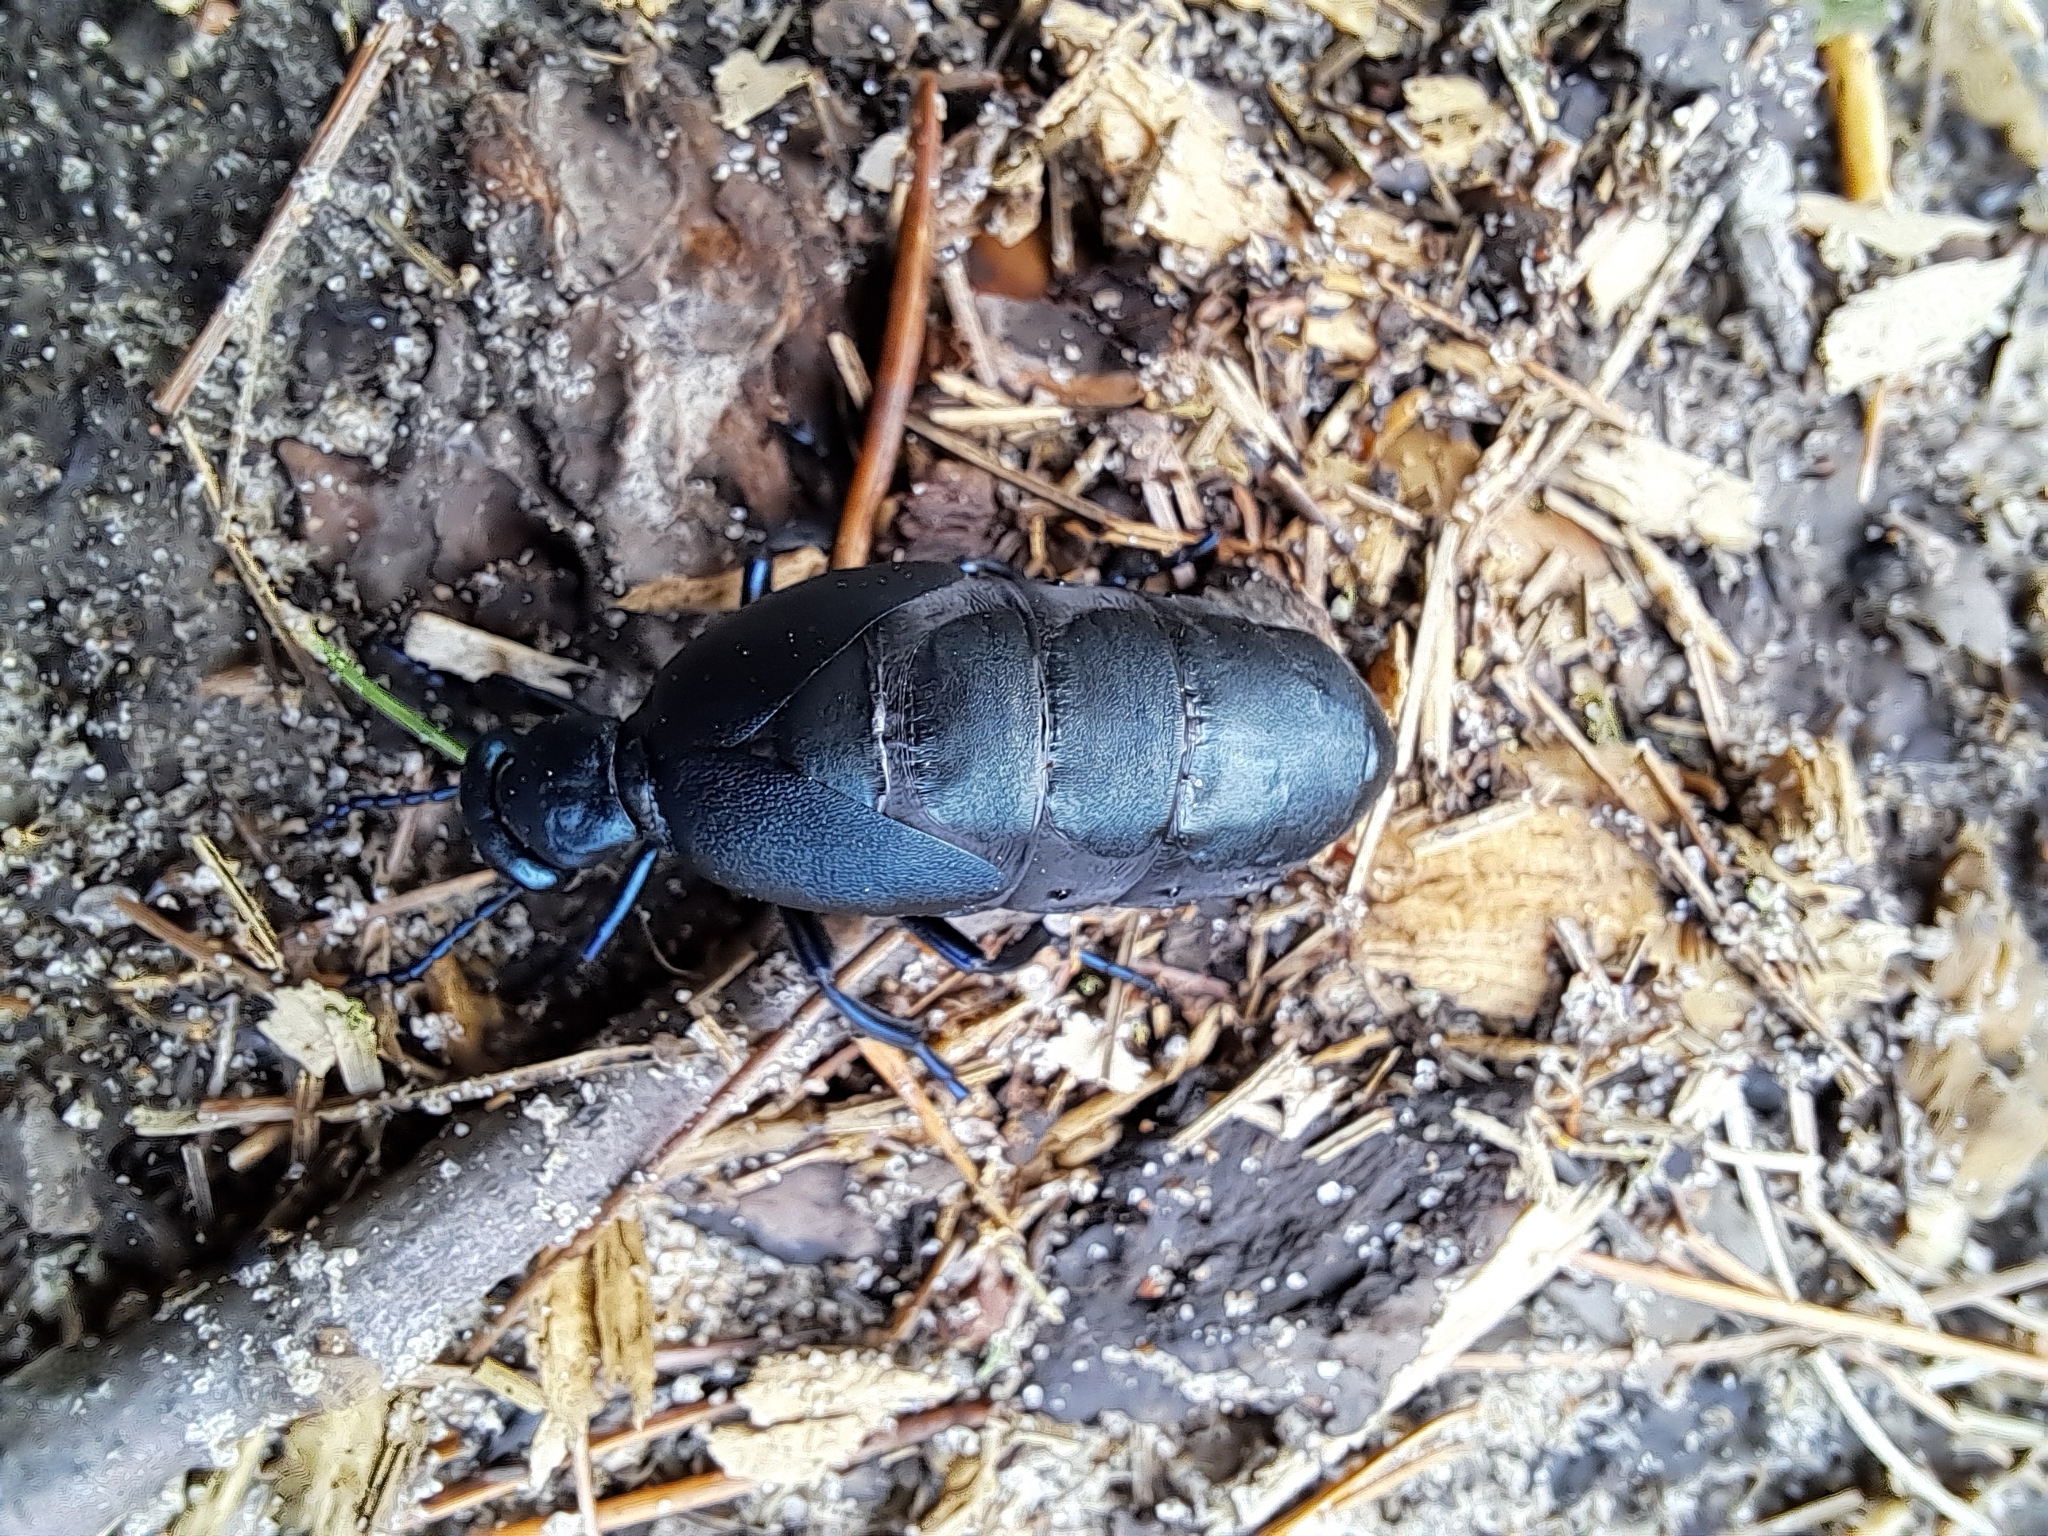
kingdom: Animalia
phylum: Arthropoda
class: Insecta
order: Coleoptera
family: Meloidae
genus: Meloe
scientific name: Meloe campanicollis
